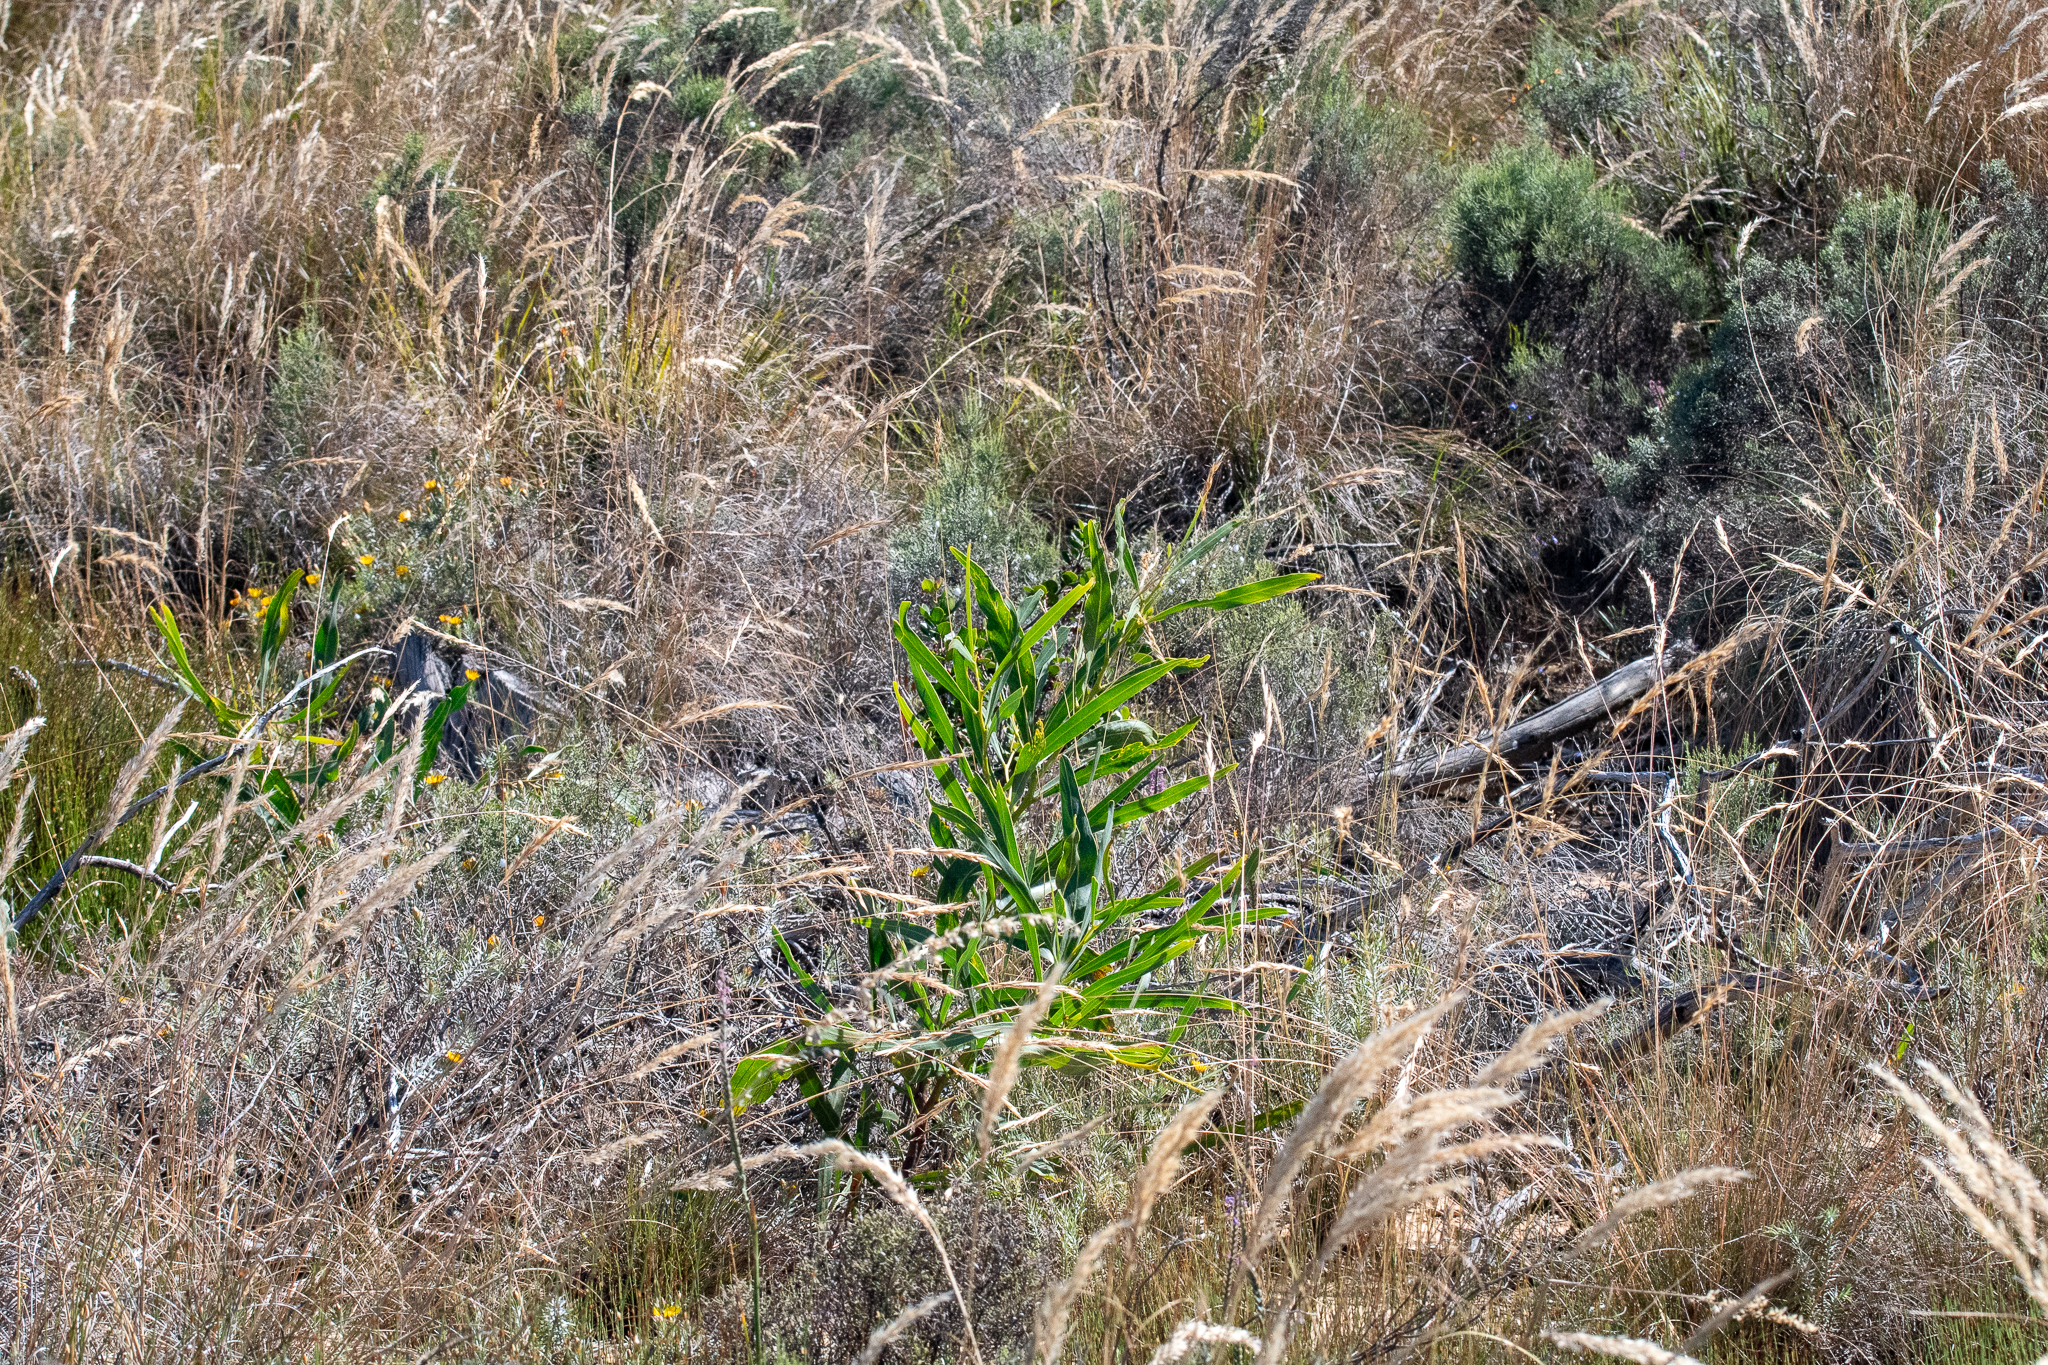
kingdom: Plantae
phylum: Tracheophyta
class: Magnoliopsida
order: Fabales
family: Fabaceae
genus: Acacia
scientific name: Acacia saligna
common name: Orange wattle
